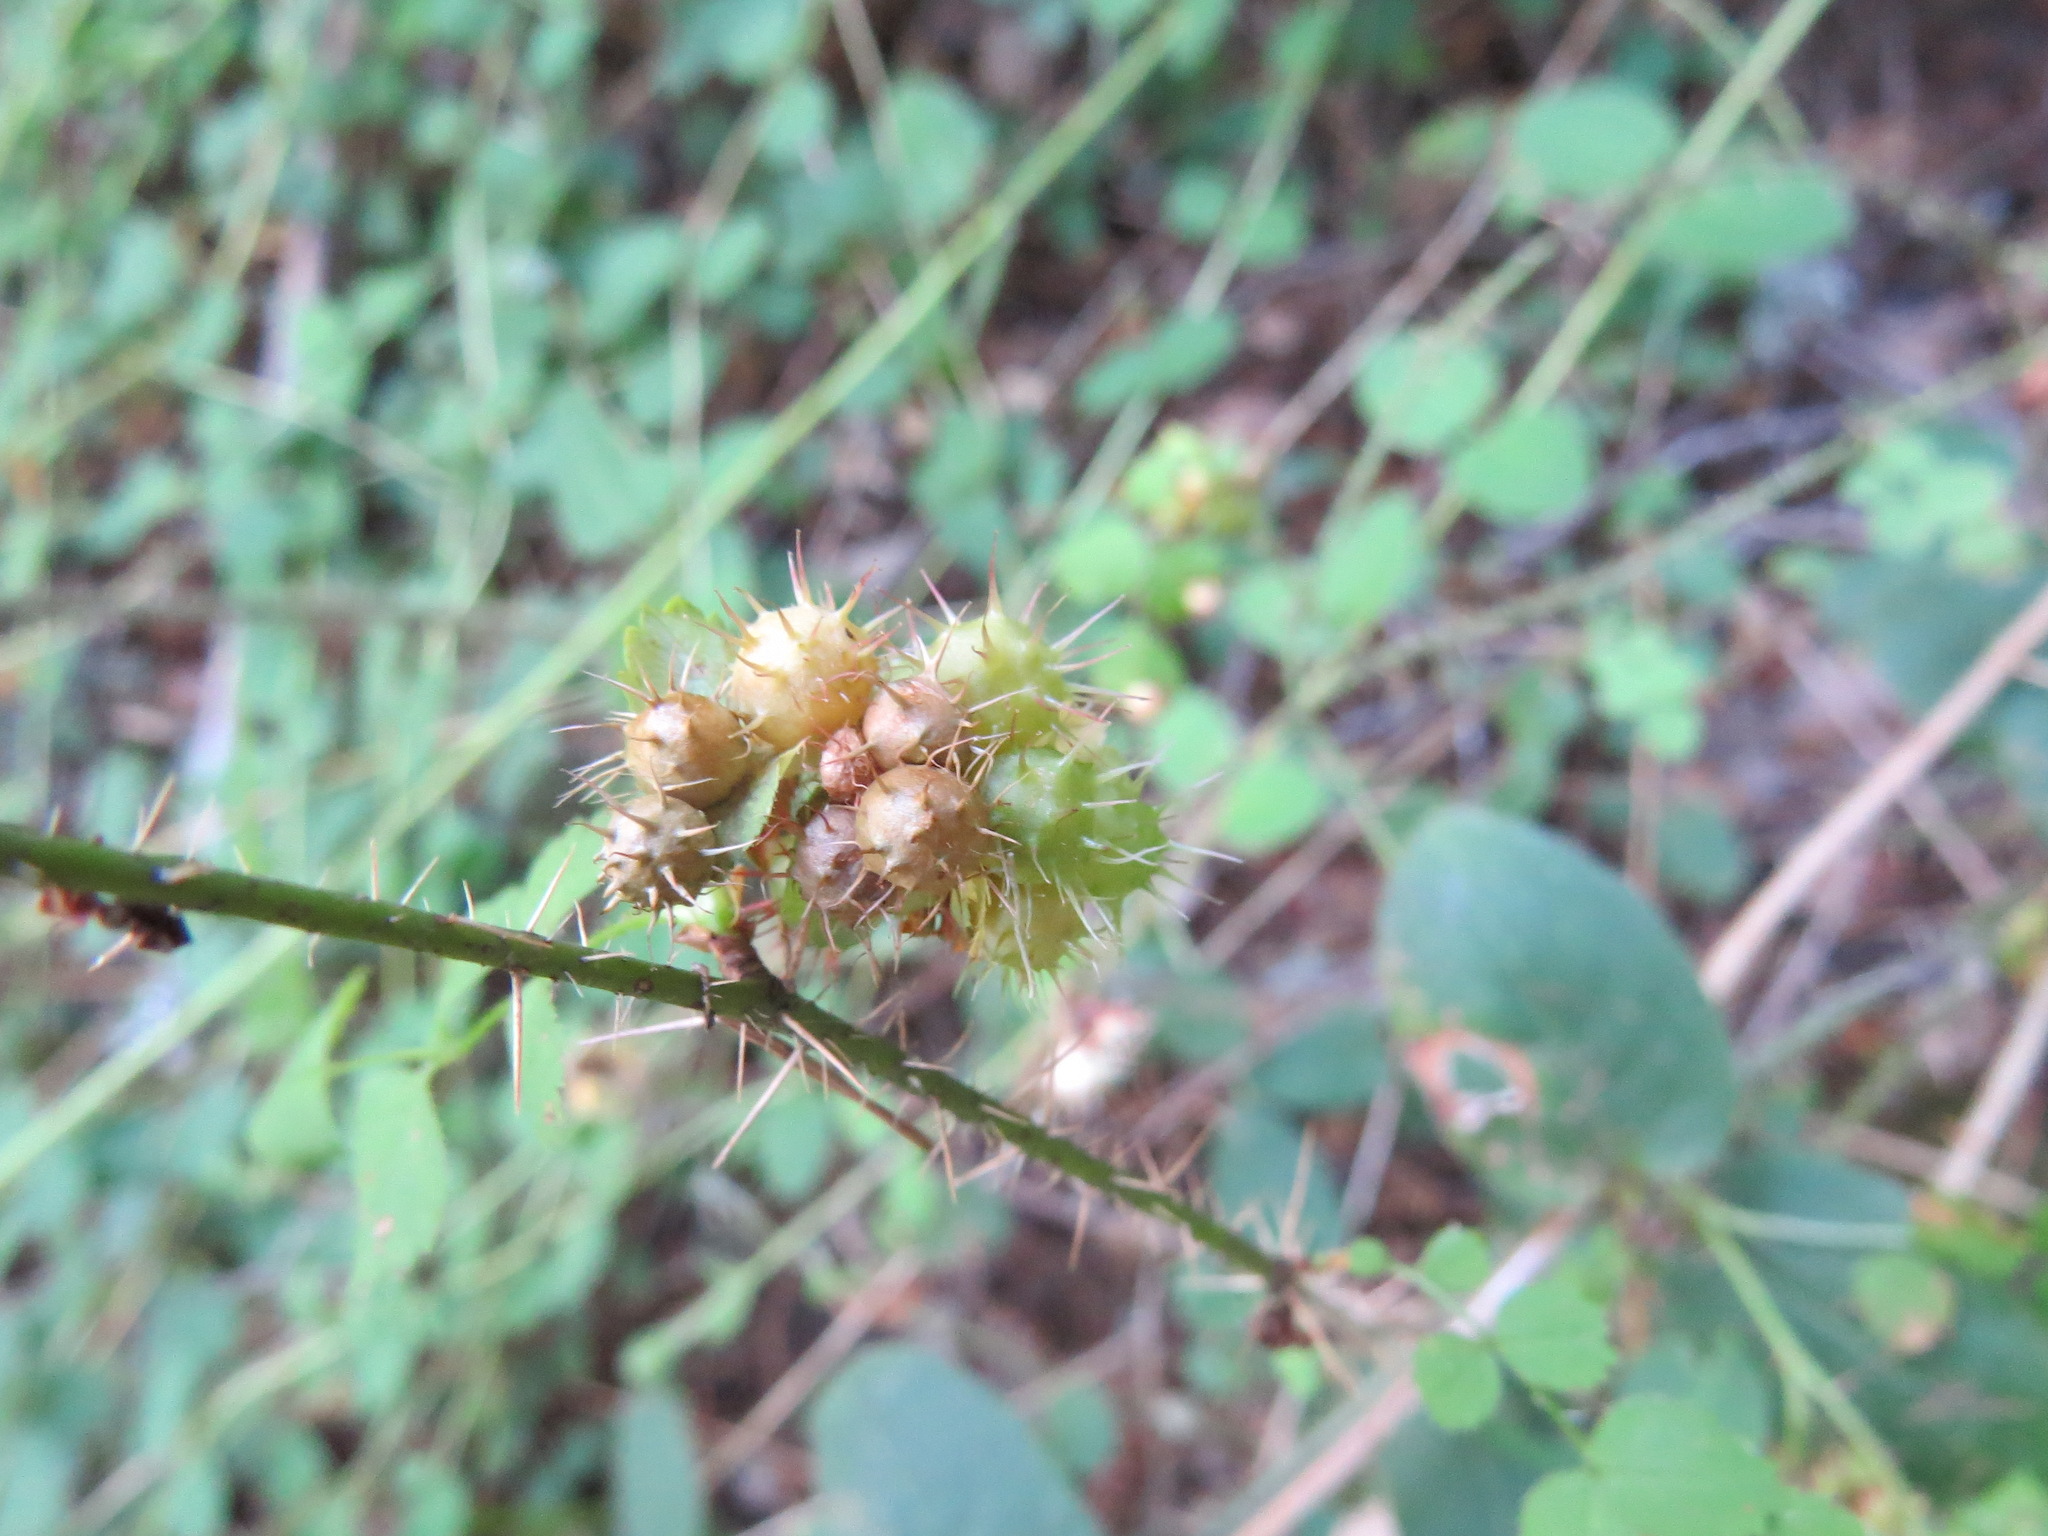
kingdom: Animalia
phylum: Arthropoda
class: Insecta
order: Hymenoptera
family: Cynipidae
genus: Diplolepis
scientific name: Diplolepis polita
